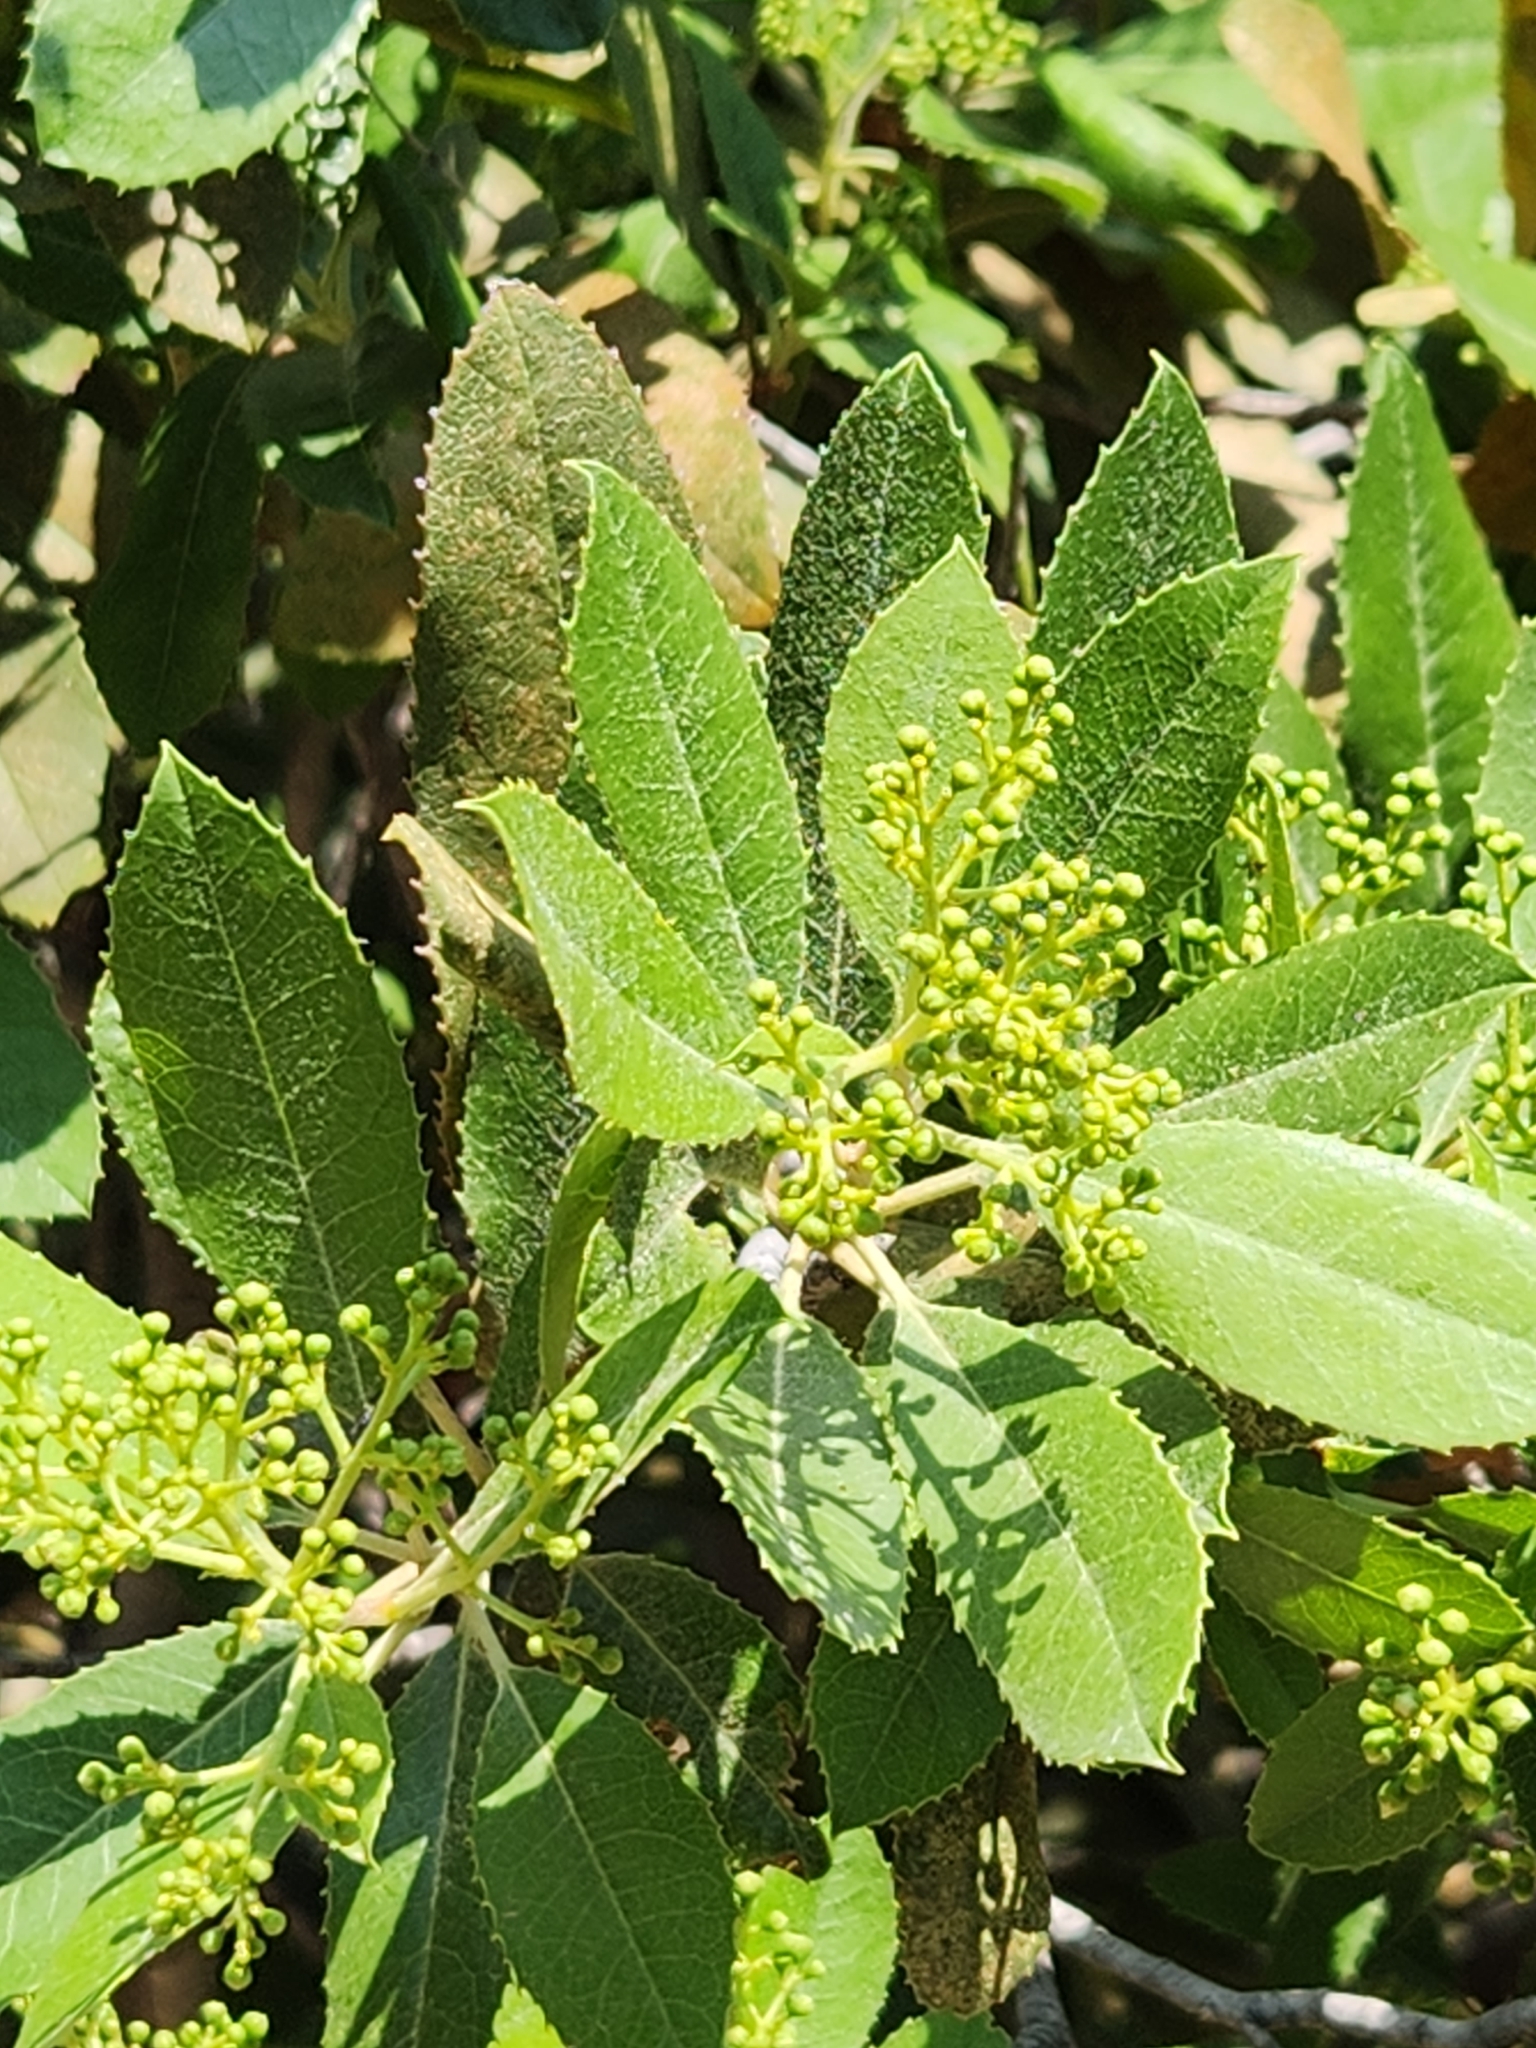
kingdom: Plantae
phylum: Tracheophyta
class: Magnoliopsida
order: Rosales
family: Rosaceae
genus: Heteromeles
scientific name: Heteromeles arbutifolia
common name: California-holly
